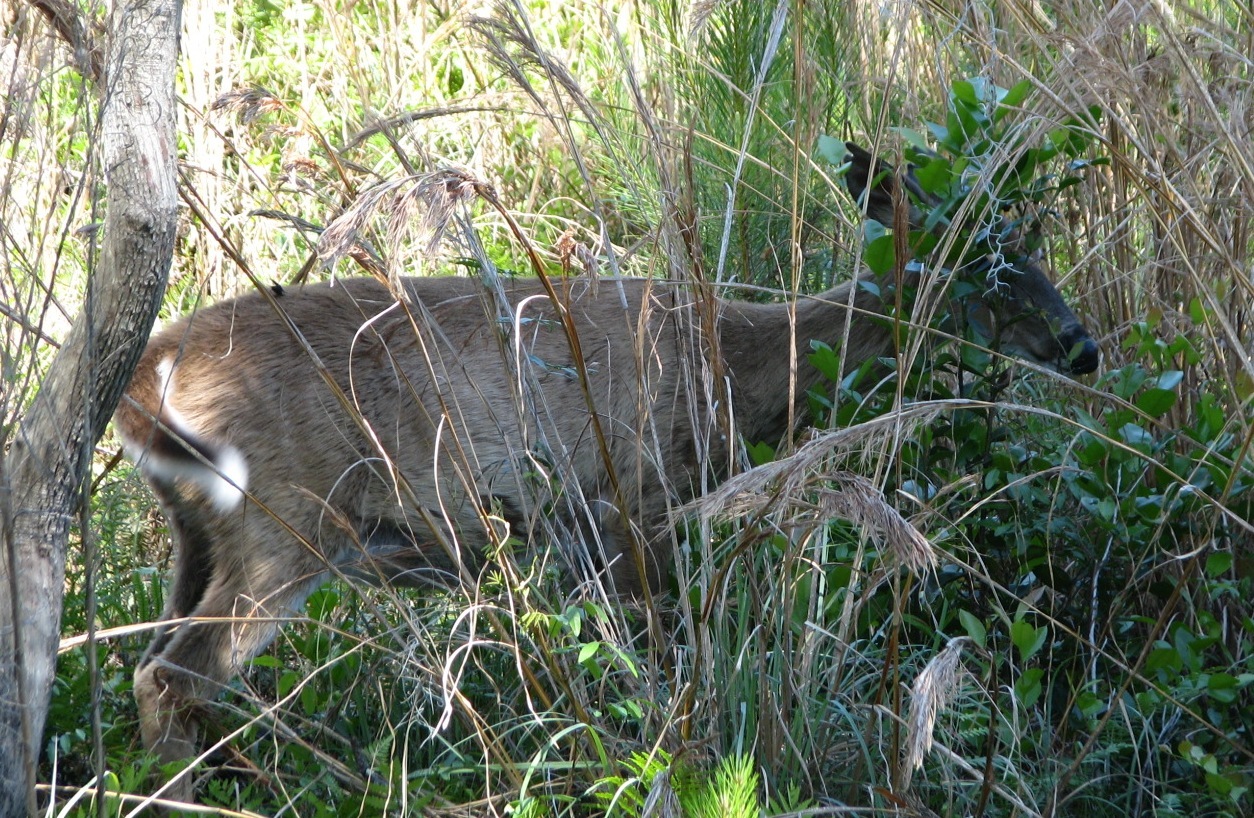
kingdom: Animalia
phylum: Chordata
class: Mammalia
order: Artiodactyla
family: Cervidae
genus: Odocoileus
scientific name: Odocoileus virginianus
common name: White-tailed deer
